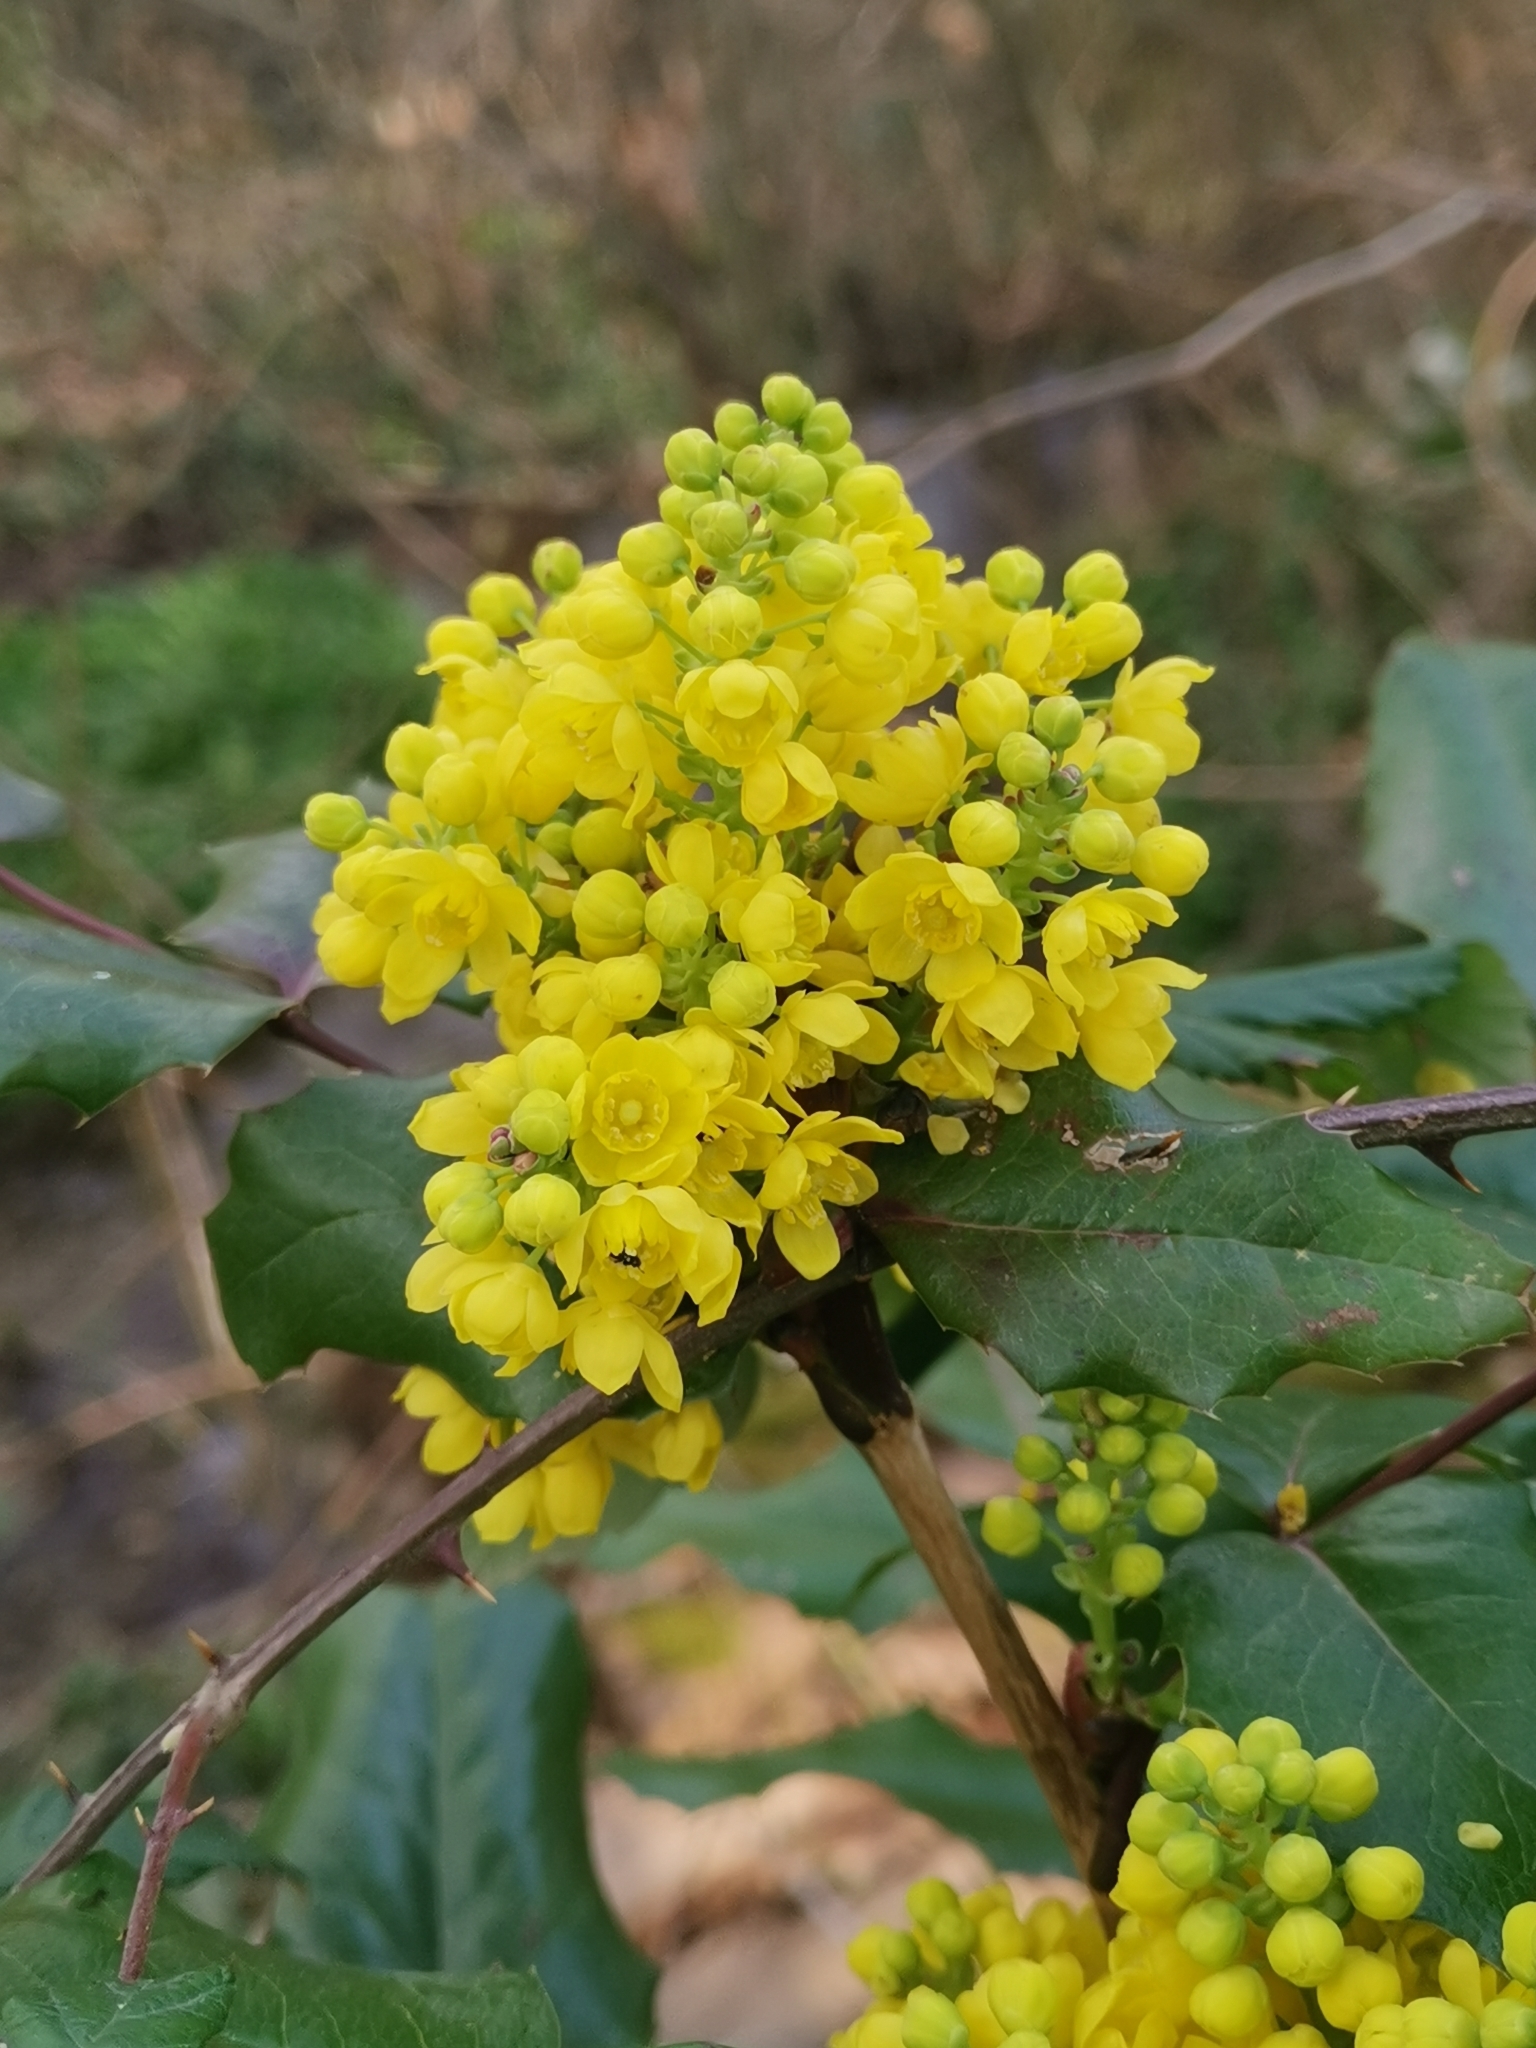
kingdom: Plantae
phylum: Tracheophyta
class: Magnoliopsida
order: Ranunculales
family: Berberidaceae
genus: Mahonia
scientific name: Mahonia aquifolium
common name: Oregon-grape
